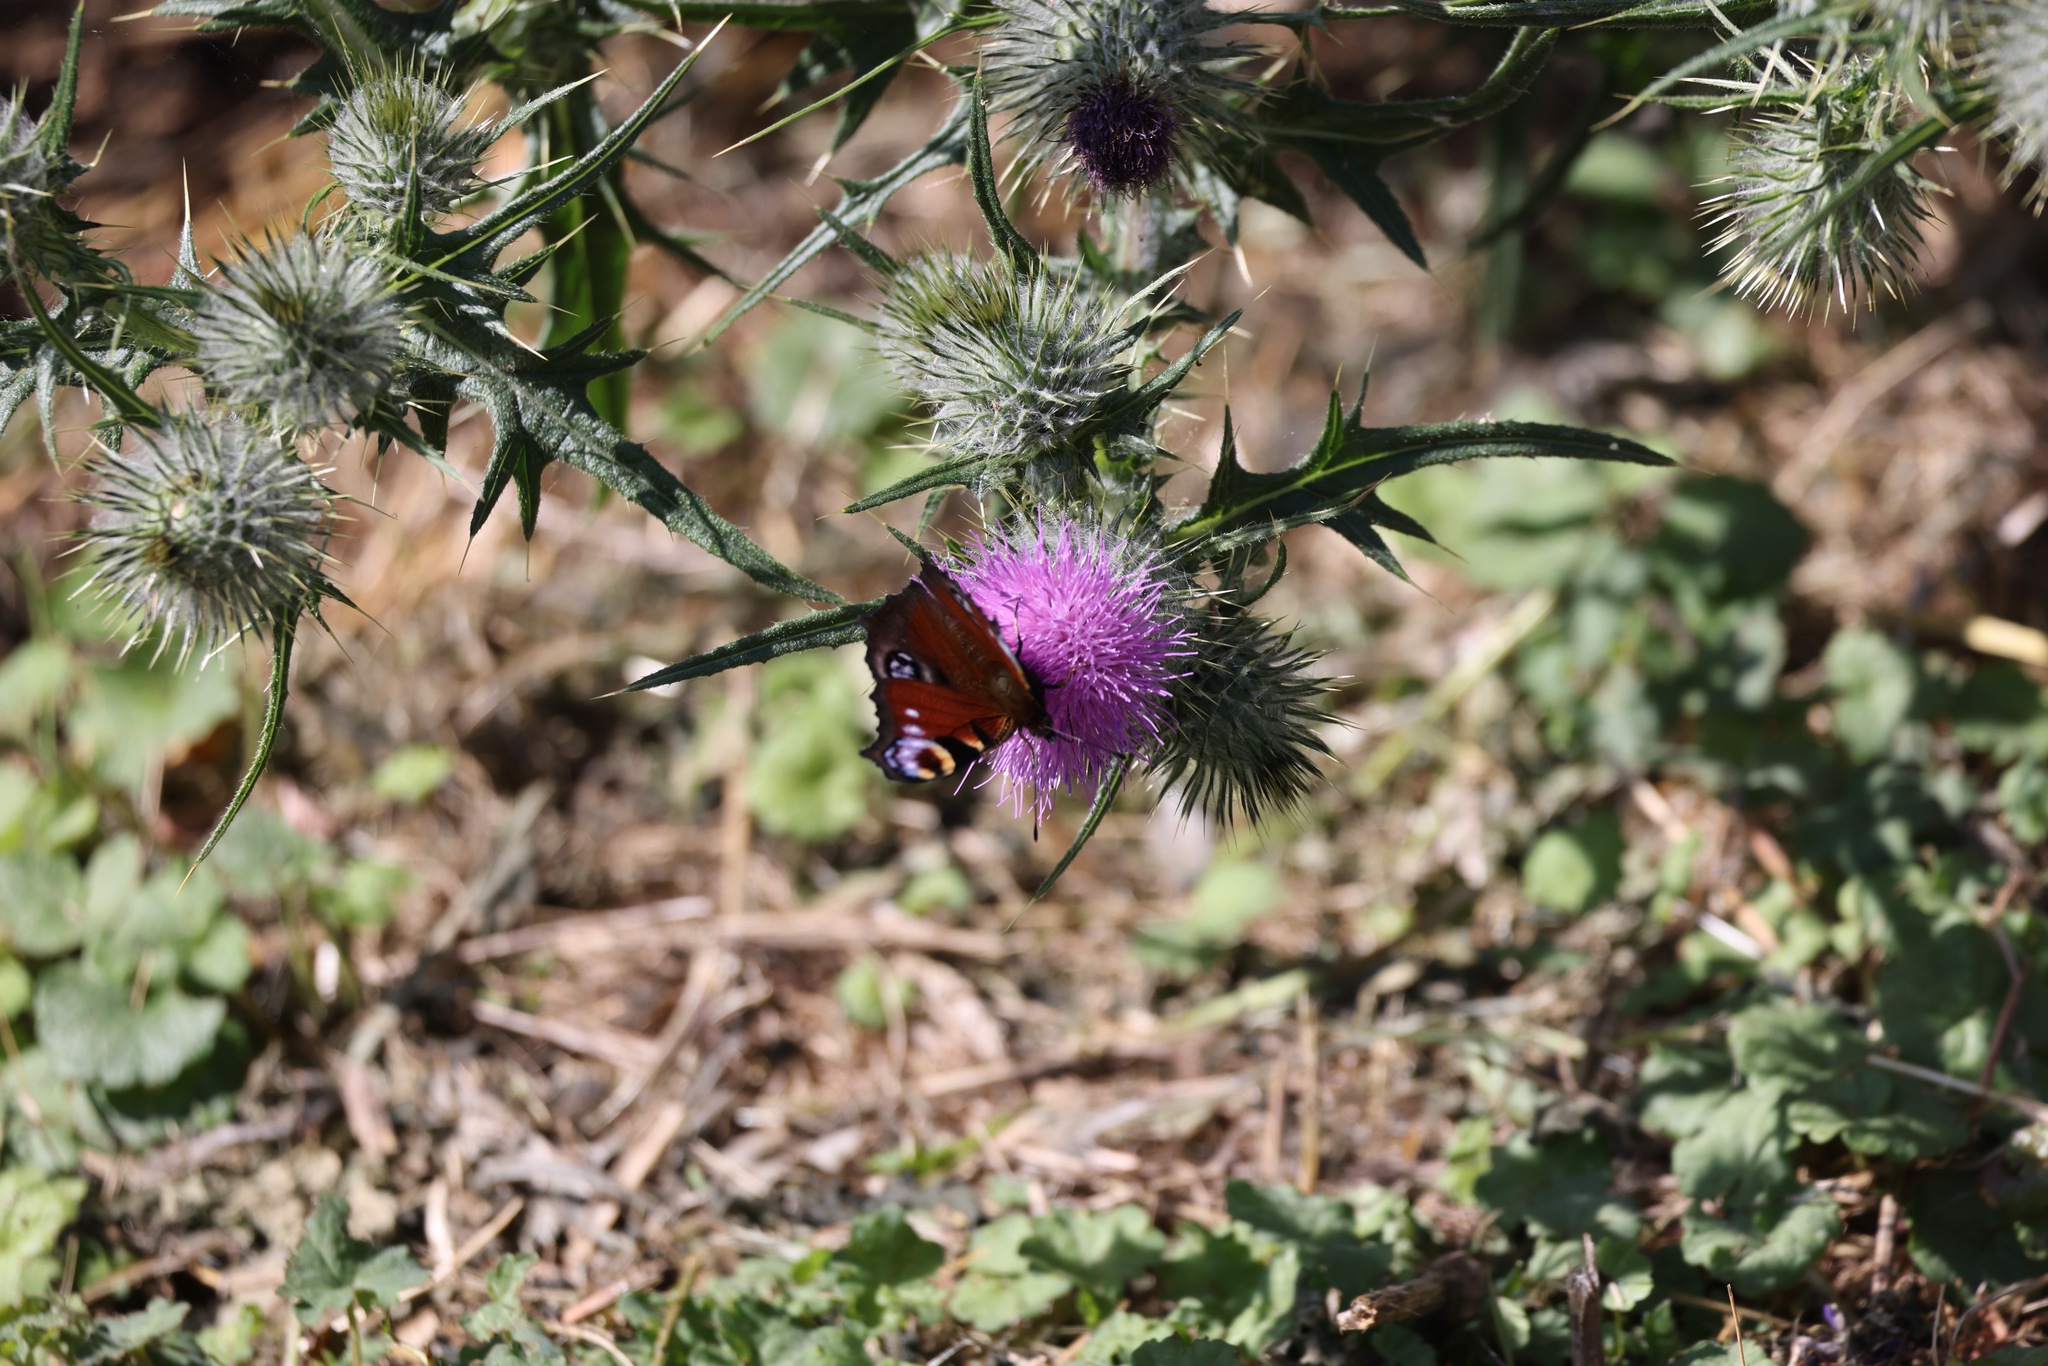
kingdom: Animalia
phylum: Arthropoda
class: Insecta
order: Lepidoptera
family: Nymphalidae
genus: Aglais
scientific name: Aglais io
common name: Peacock
